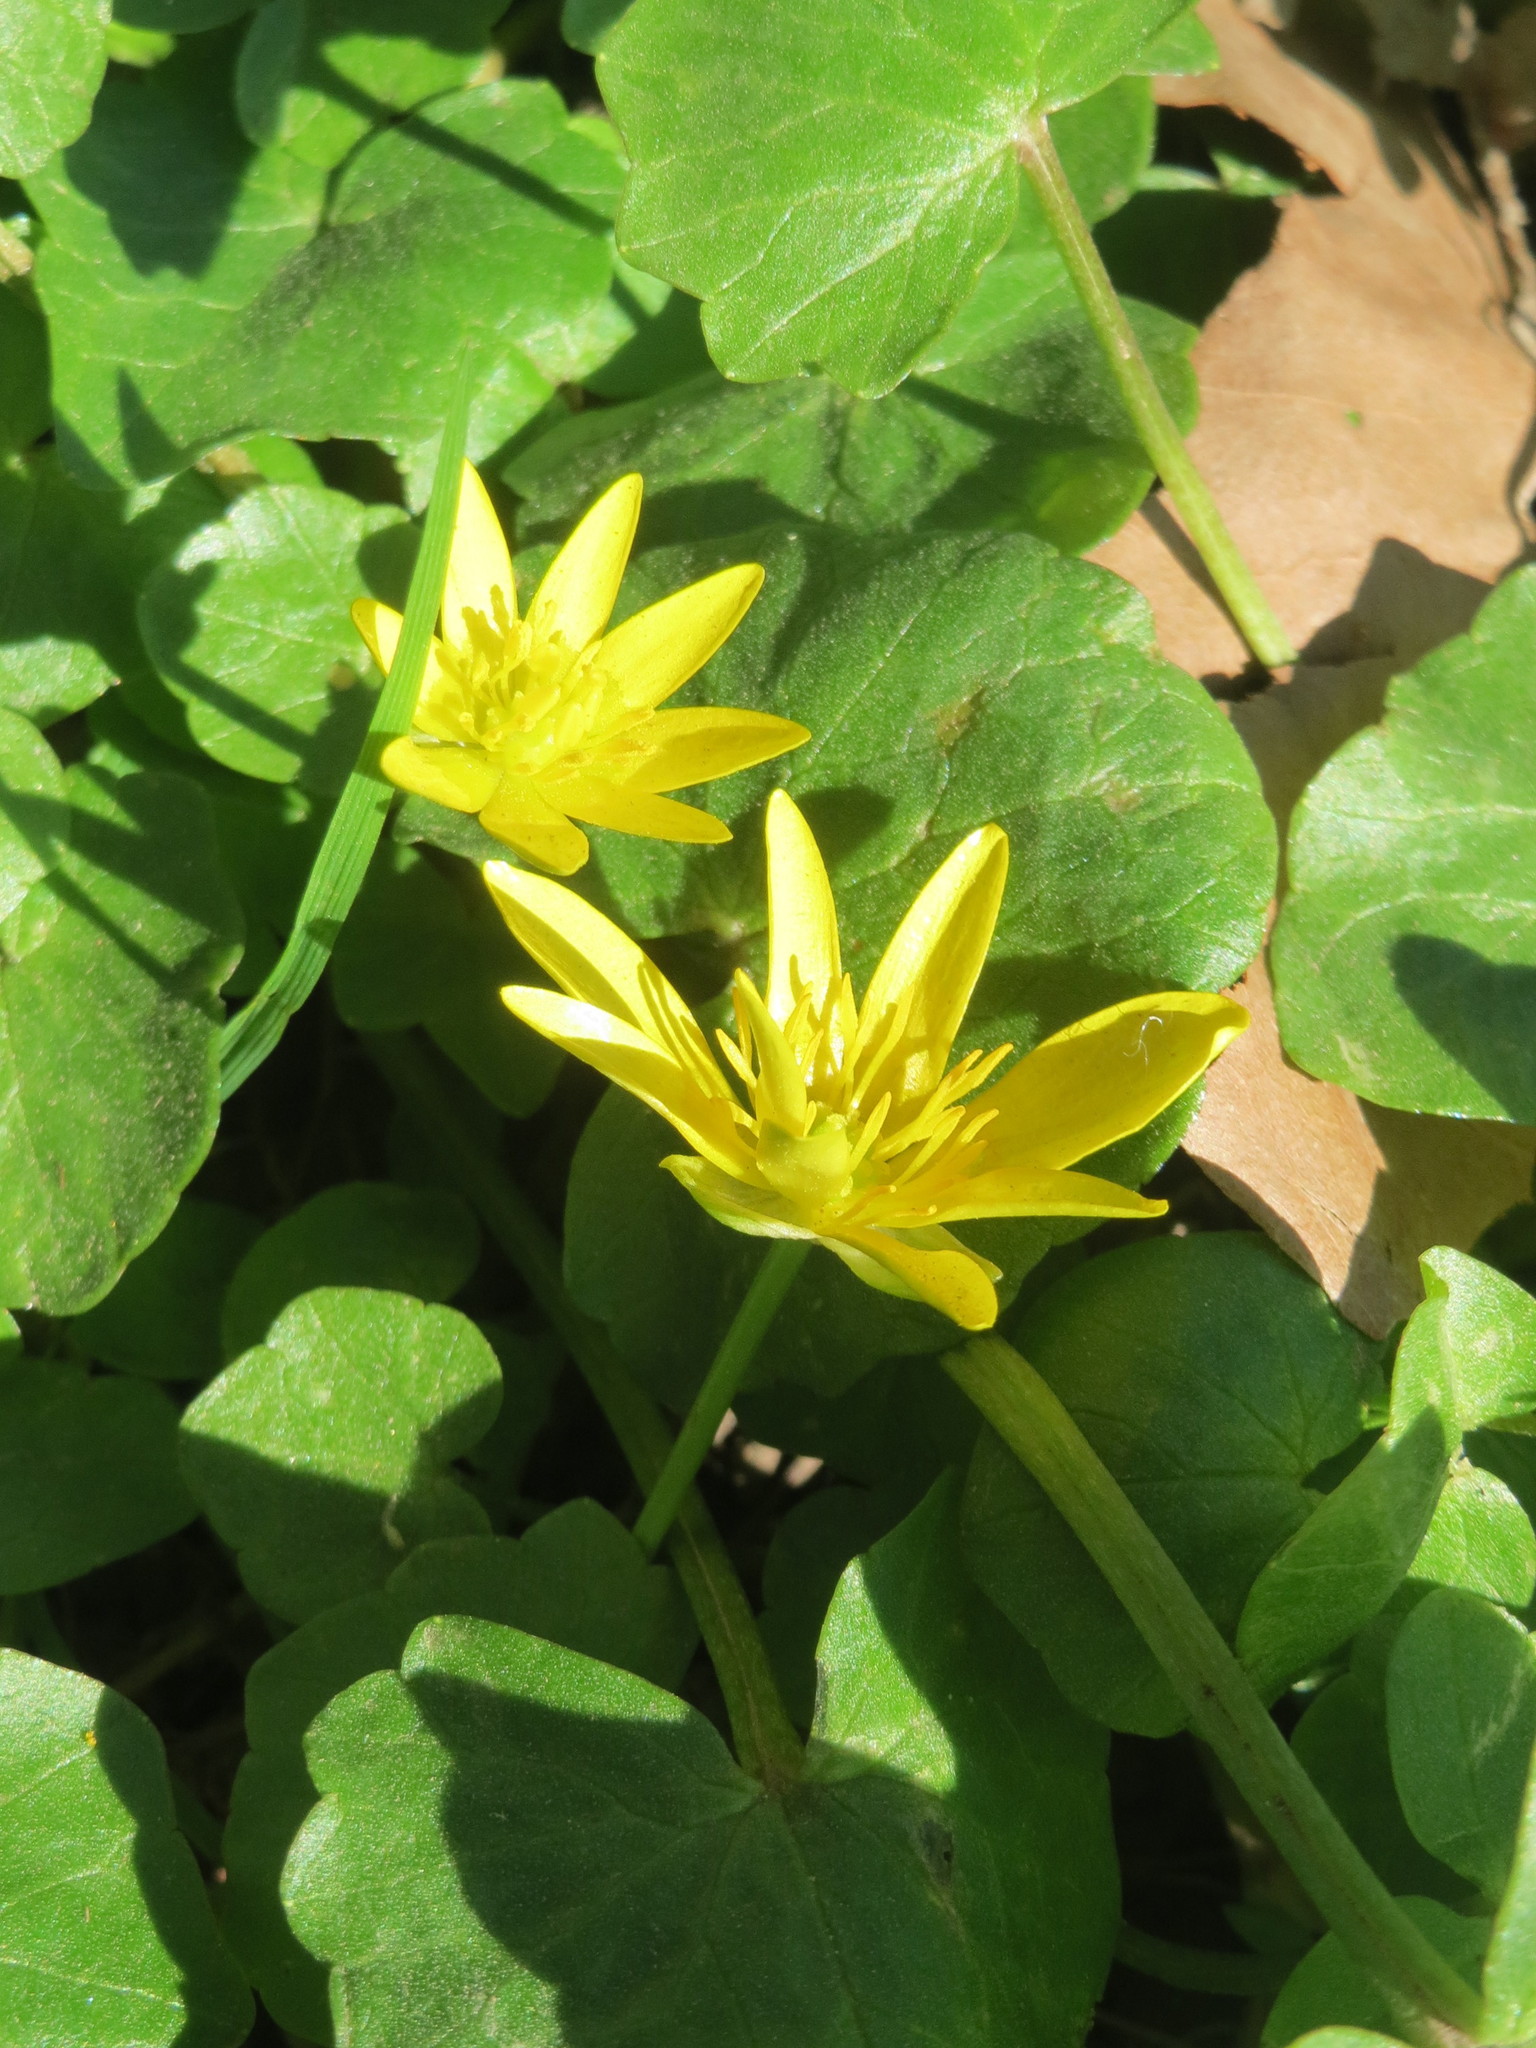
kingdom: Plantae
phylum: Tracheophyta
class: Magnoliopsida
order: Ranunculales
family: Ranunculaceae
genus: Ficaria
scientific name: Ficaria verna
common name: Lesser celandine
